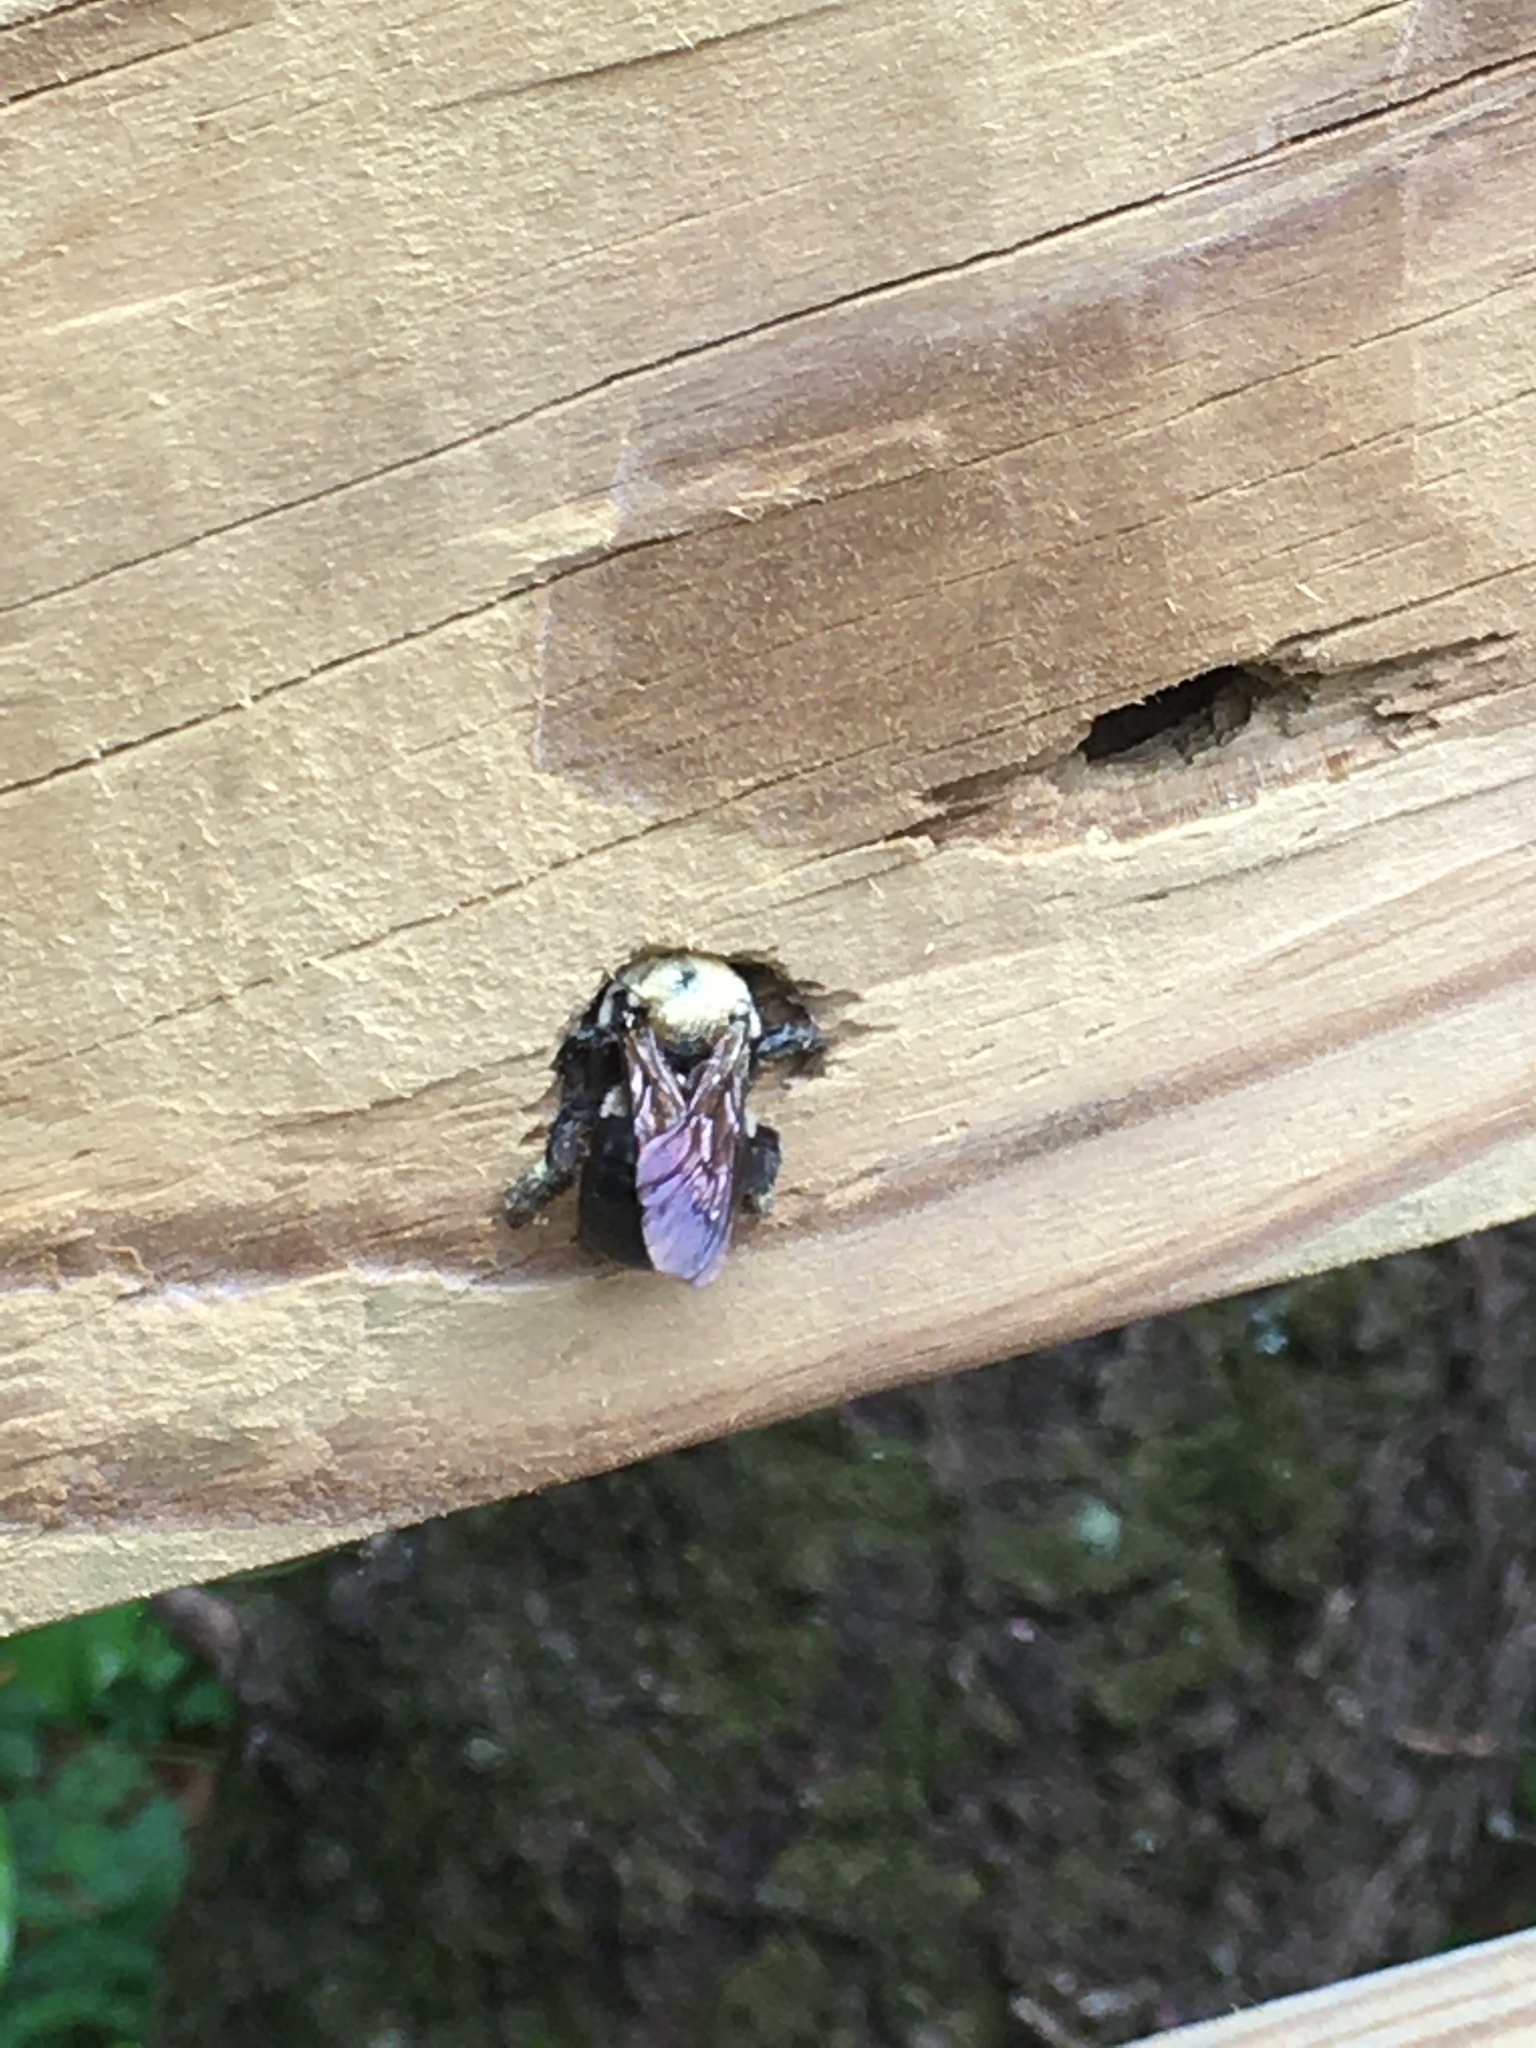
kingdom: Animalia
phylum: Arthropoda
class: Insecta
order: Hymenoptera
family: Apidae
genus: Xylocopa
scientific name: Xylocopa virginica
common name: Carpenter bee
